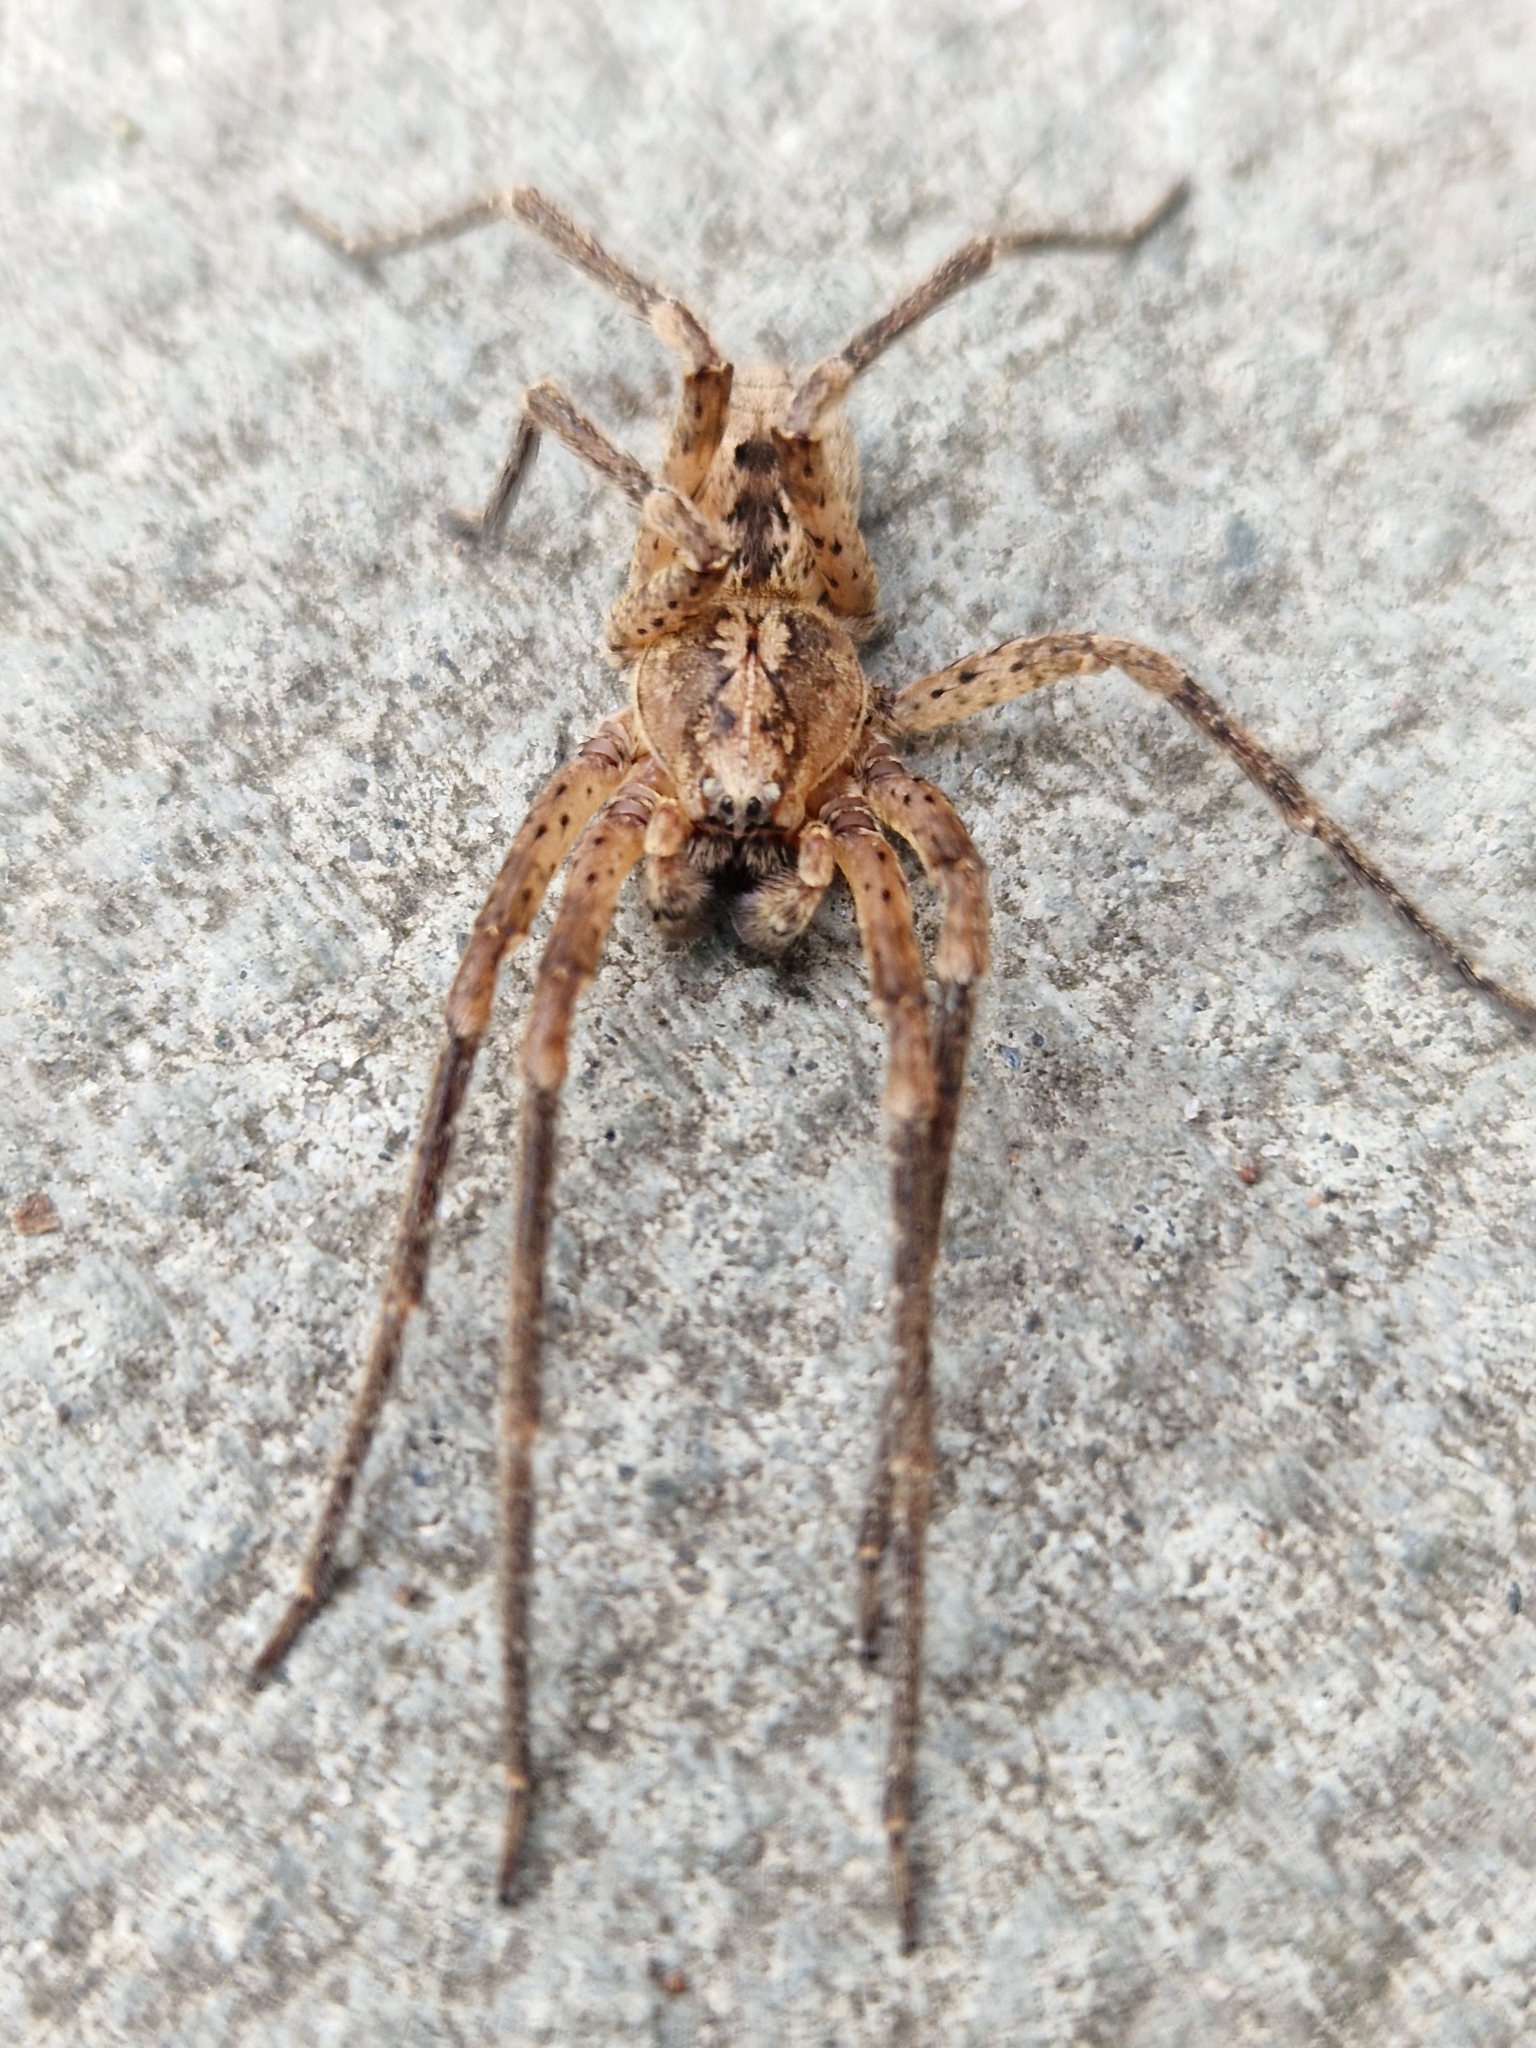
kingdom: Animalia
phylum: Arthropoda
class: Arachnida
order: Araneae
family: Zoropsidae
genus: Zoropsis
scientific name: Zoropsis spinimana
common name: Zoropsid spider
